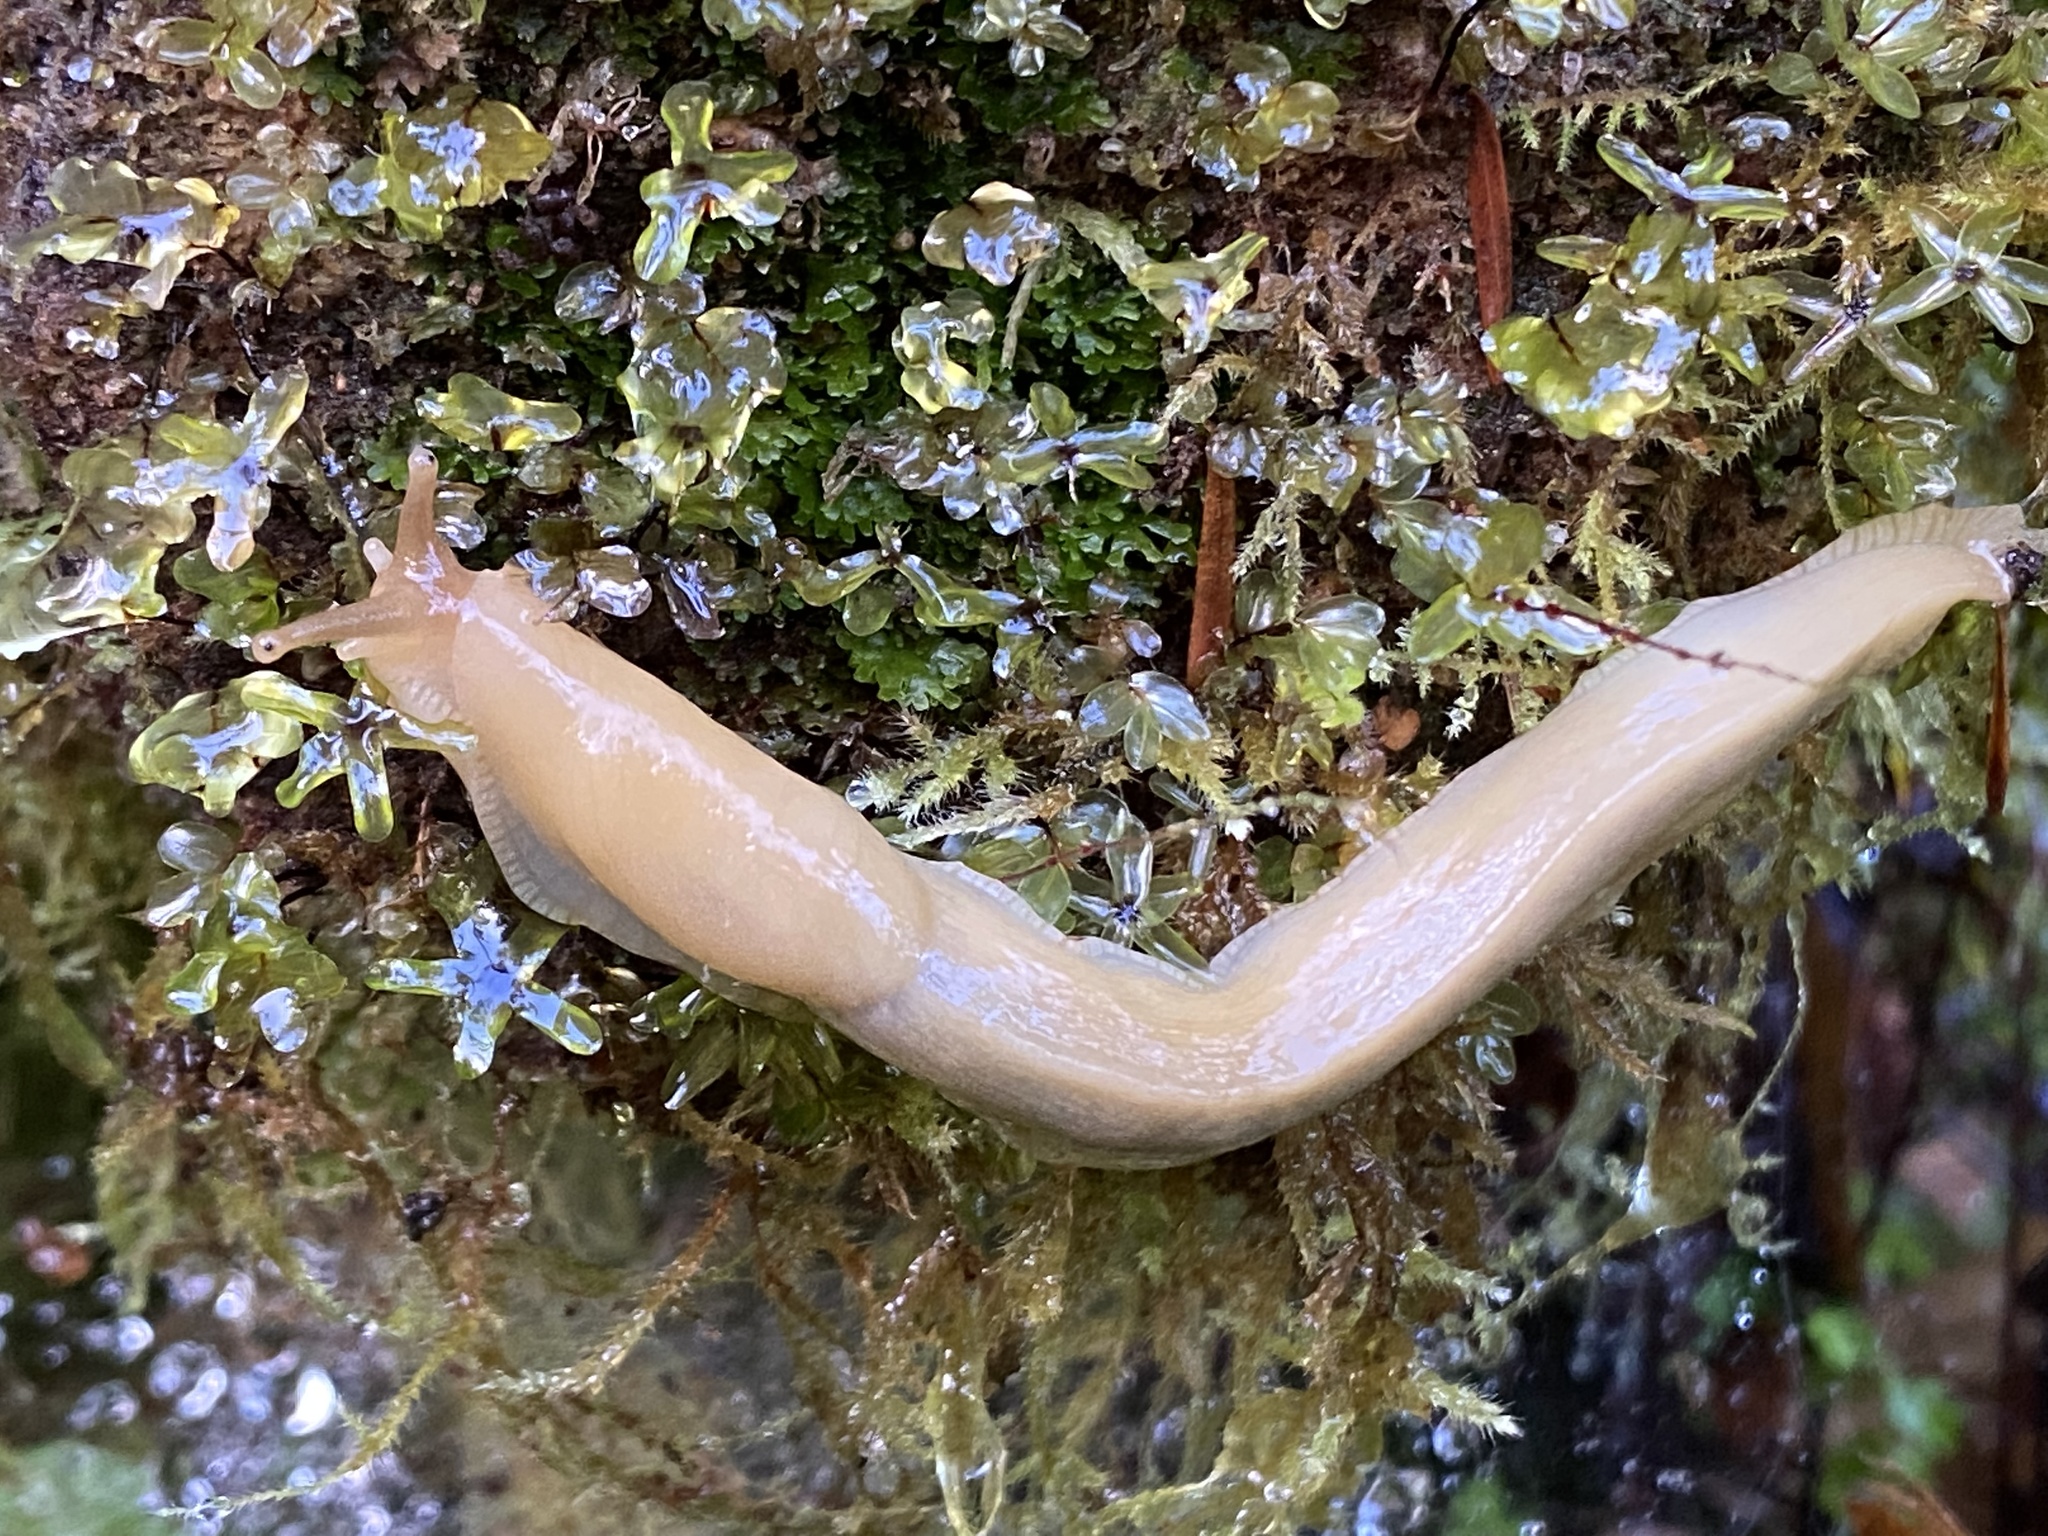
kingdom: Animalia
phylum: Mollusca
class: Gastropoda
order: Stylommatophora
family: Ariolimacidae
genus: Ariolimax
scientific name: Ariolimax columbianus
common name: Pacific banana slug
